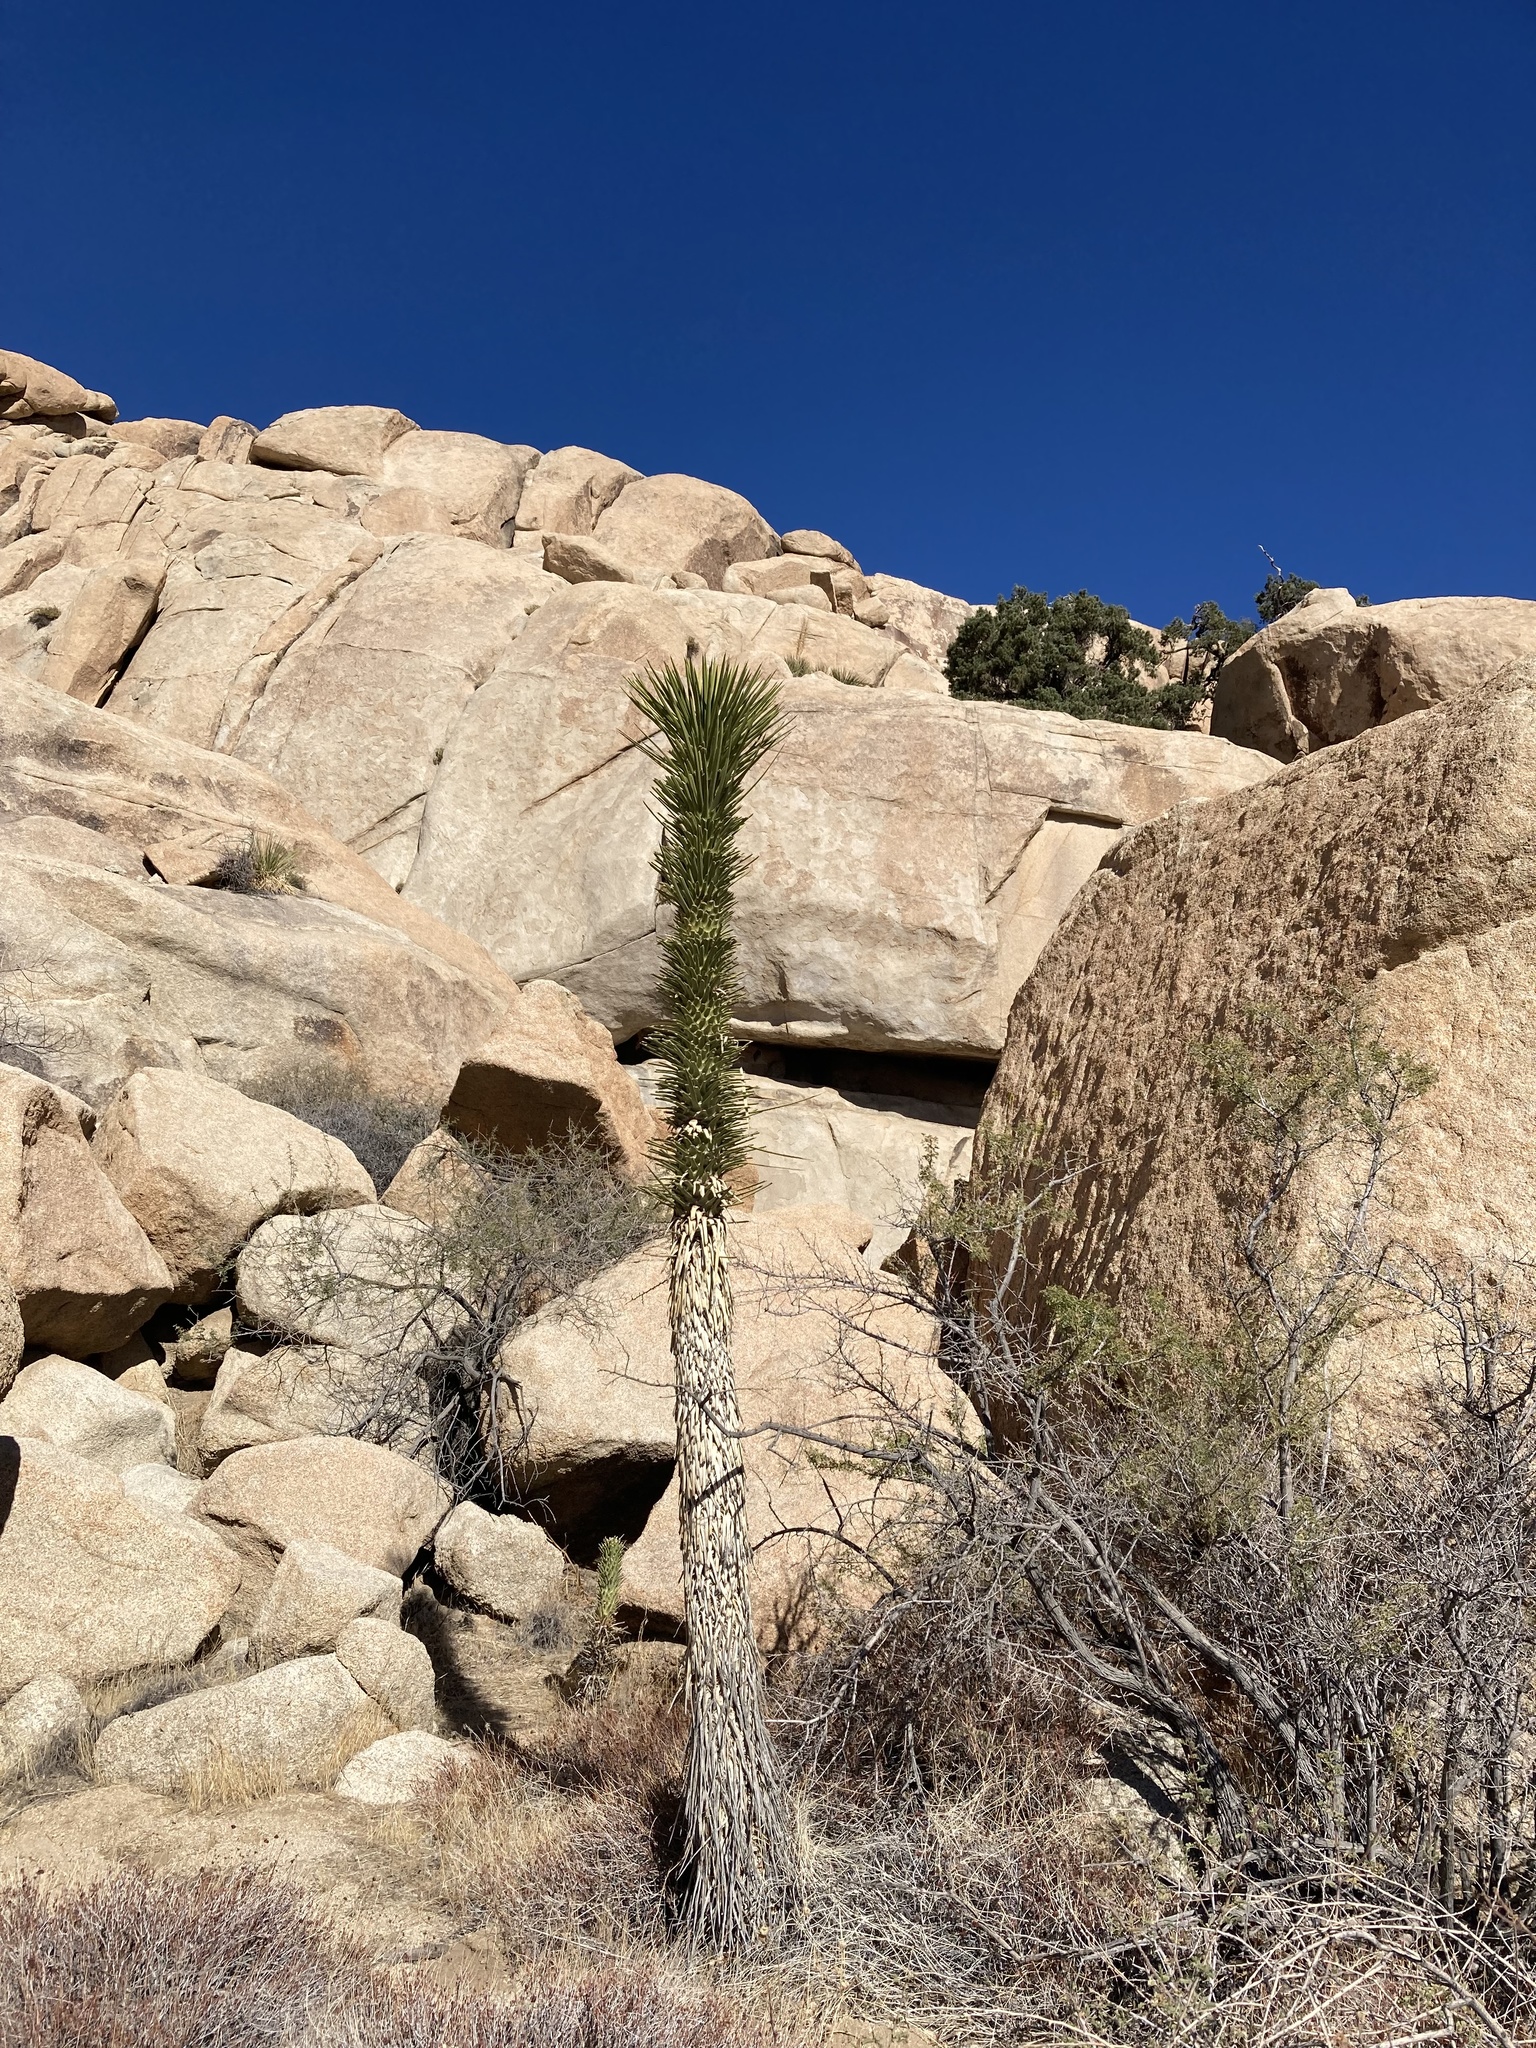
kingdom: Plantae
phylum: Tracheophyta
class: Liliopsida
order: Asparagales
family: Asparagaceae
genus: Yucca
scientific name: Yucca brevifolia
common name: Joshua tree
